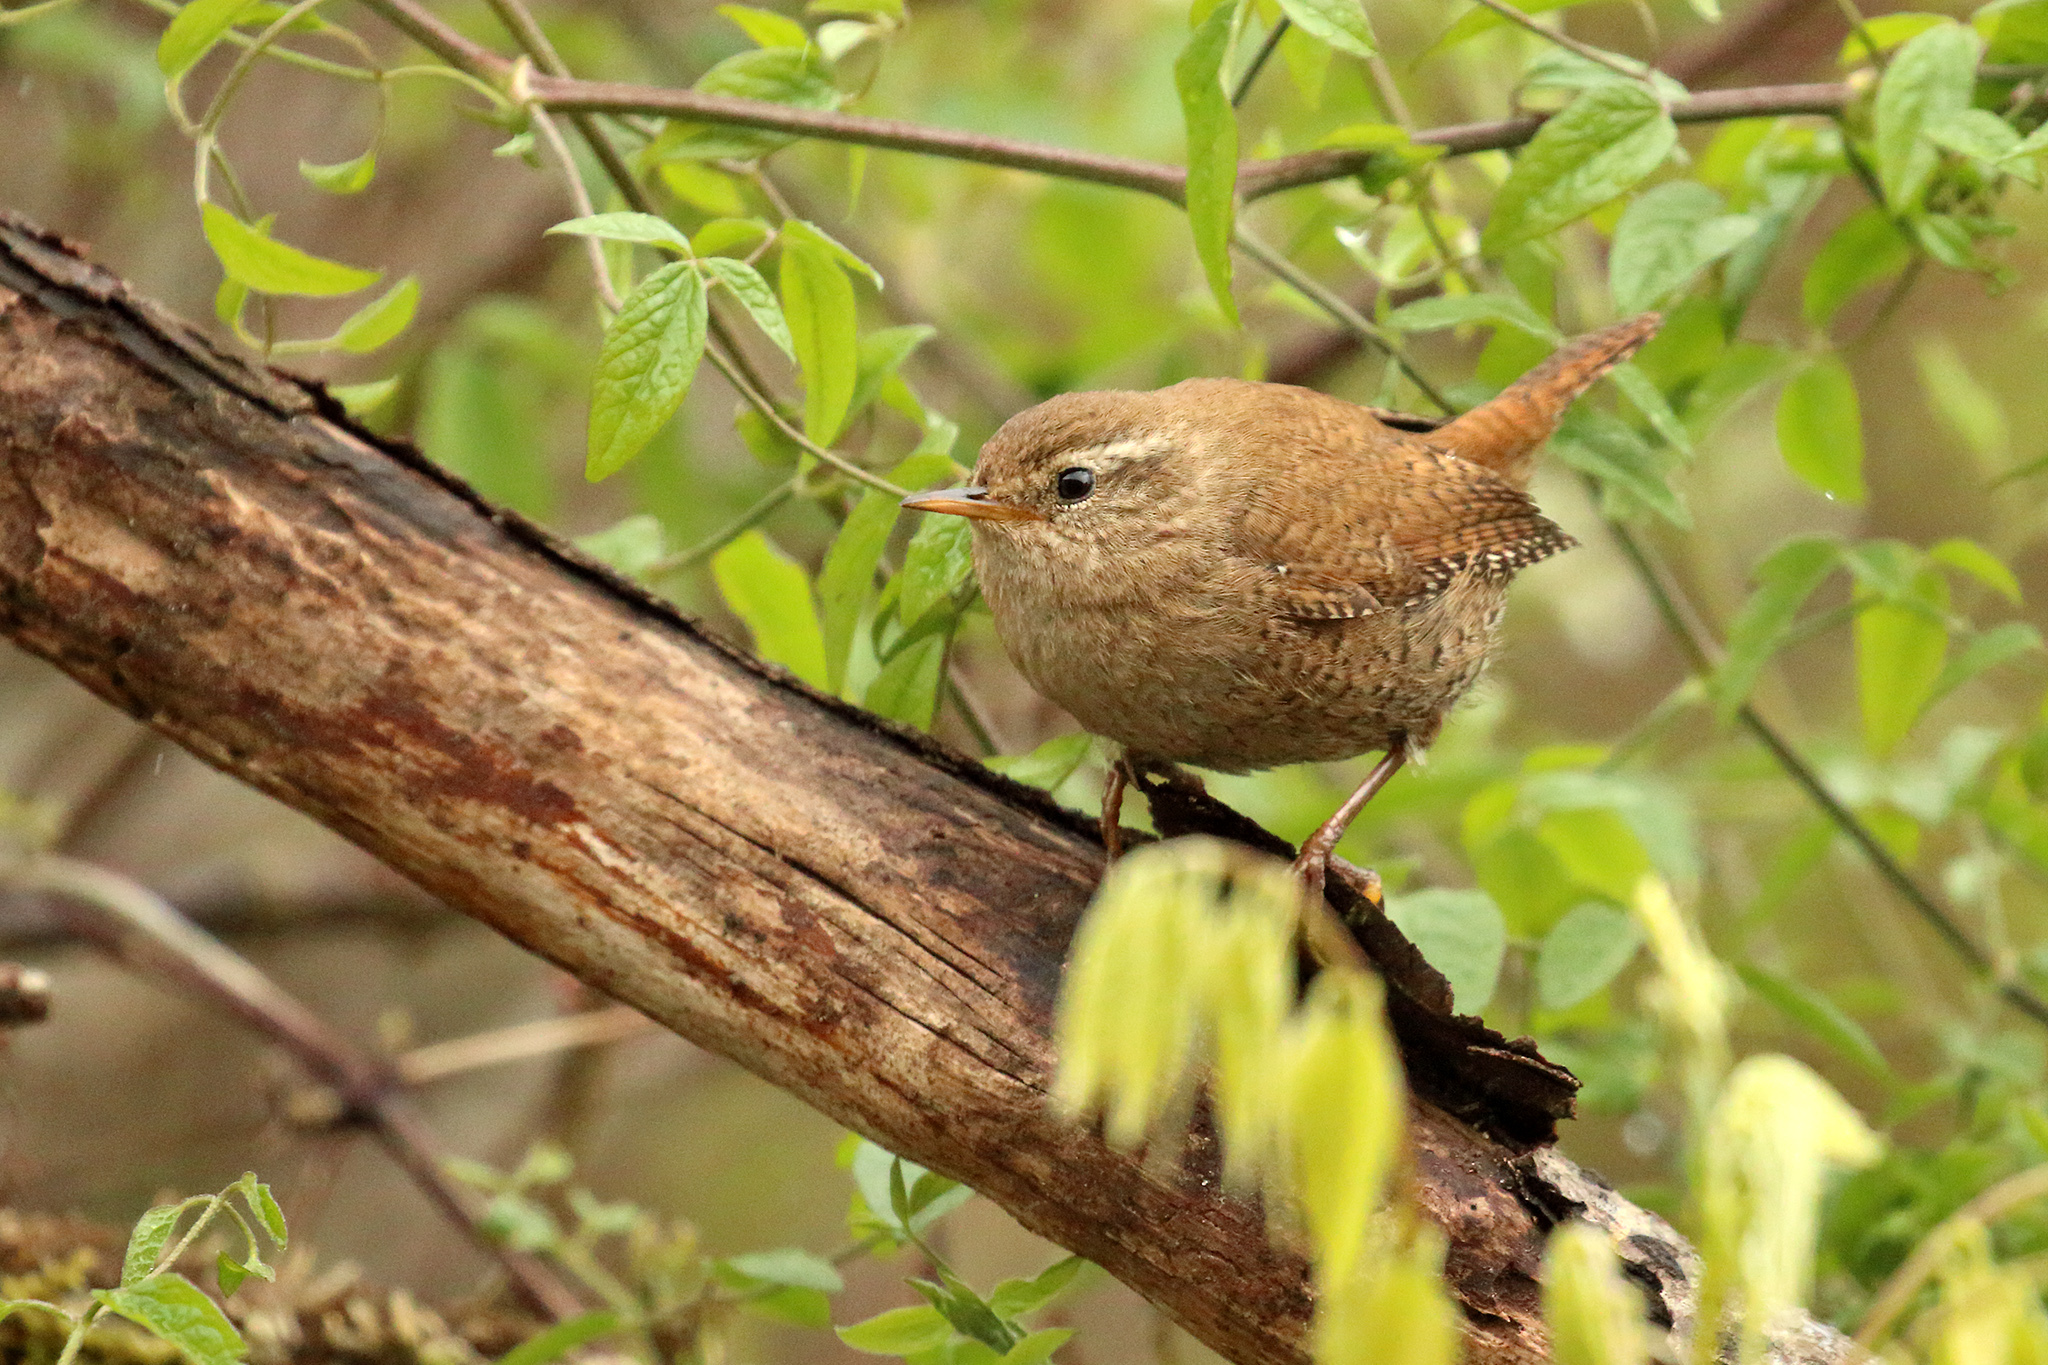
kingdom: Animalia
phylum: Chordata
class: Aves
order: Passeriformes
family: Troglodytidae
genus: Troglodytes
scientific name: Troglodytes troglodytes
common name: Eurasian wren
